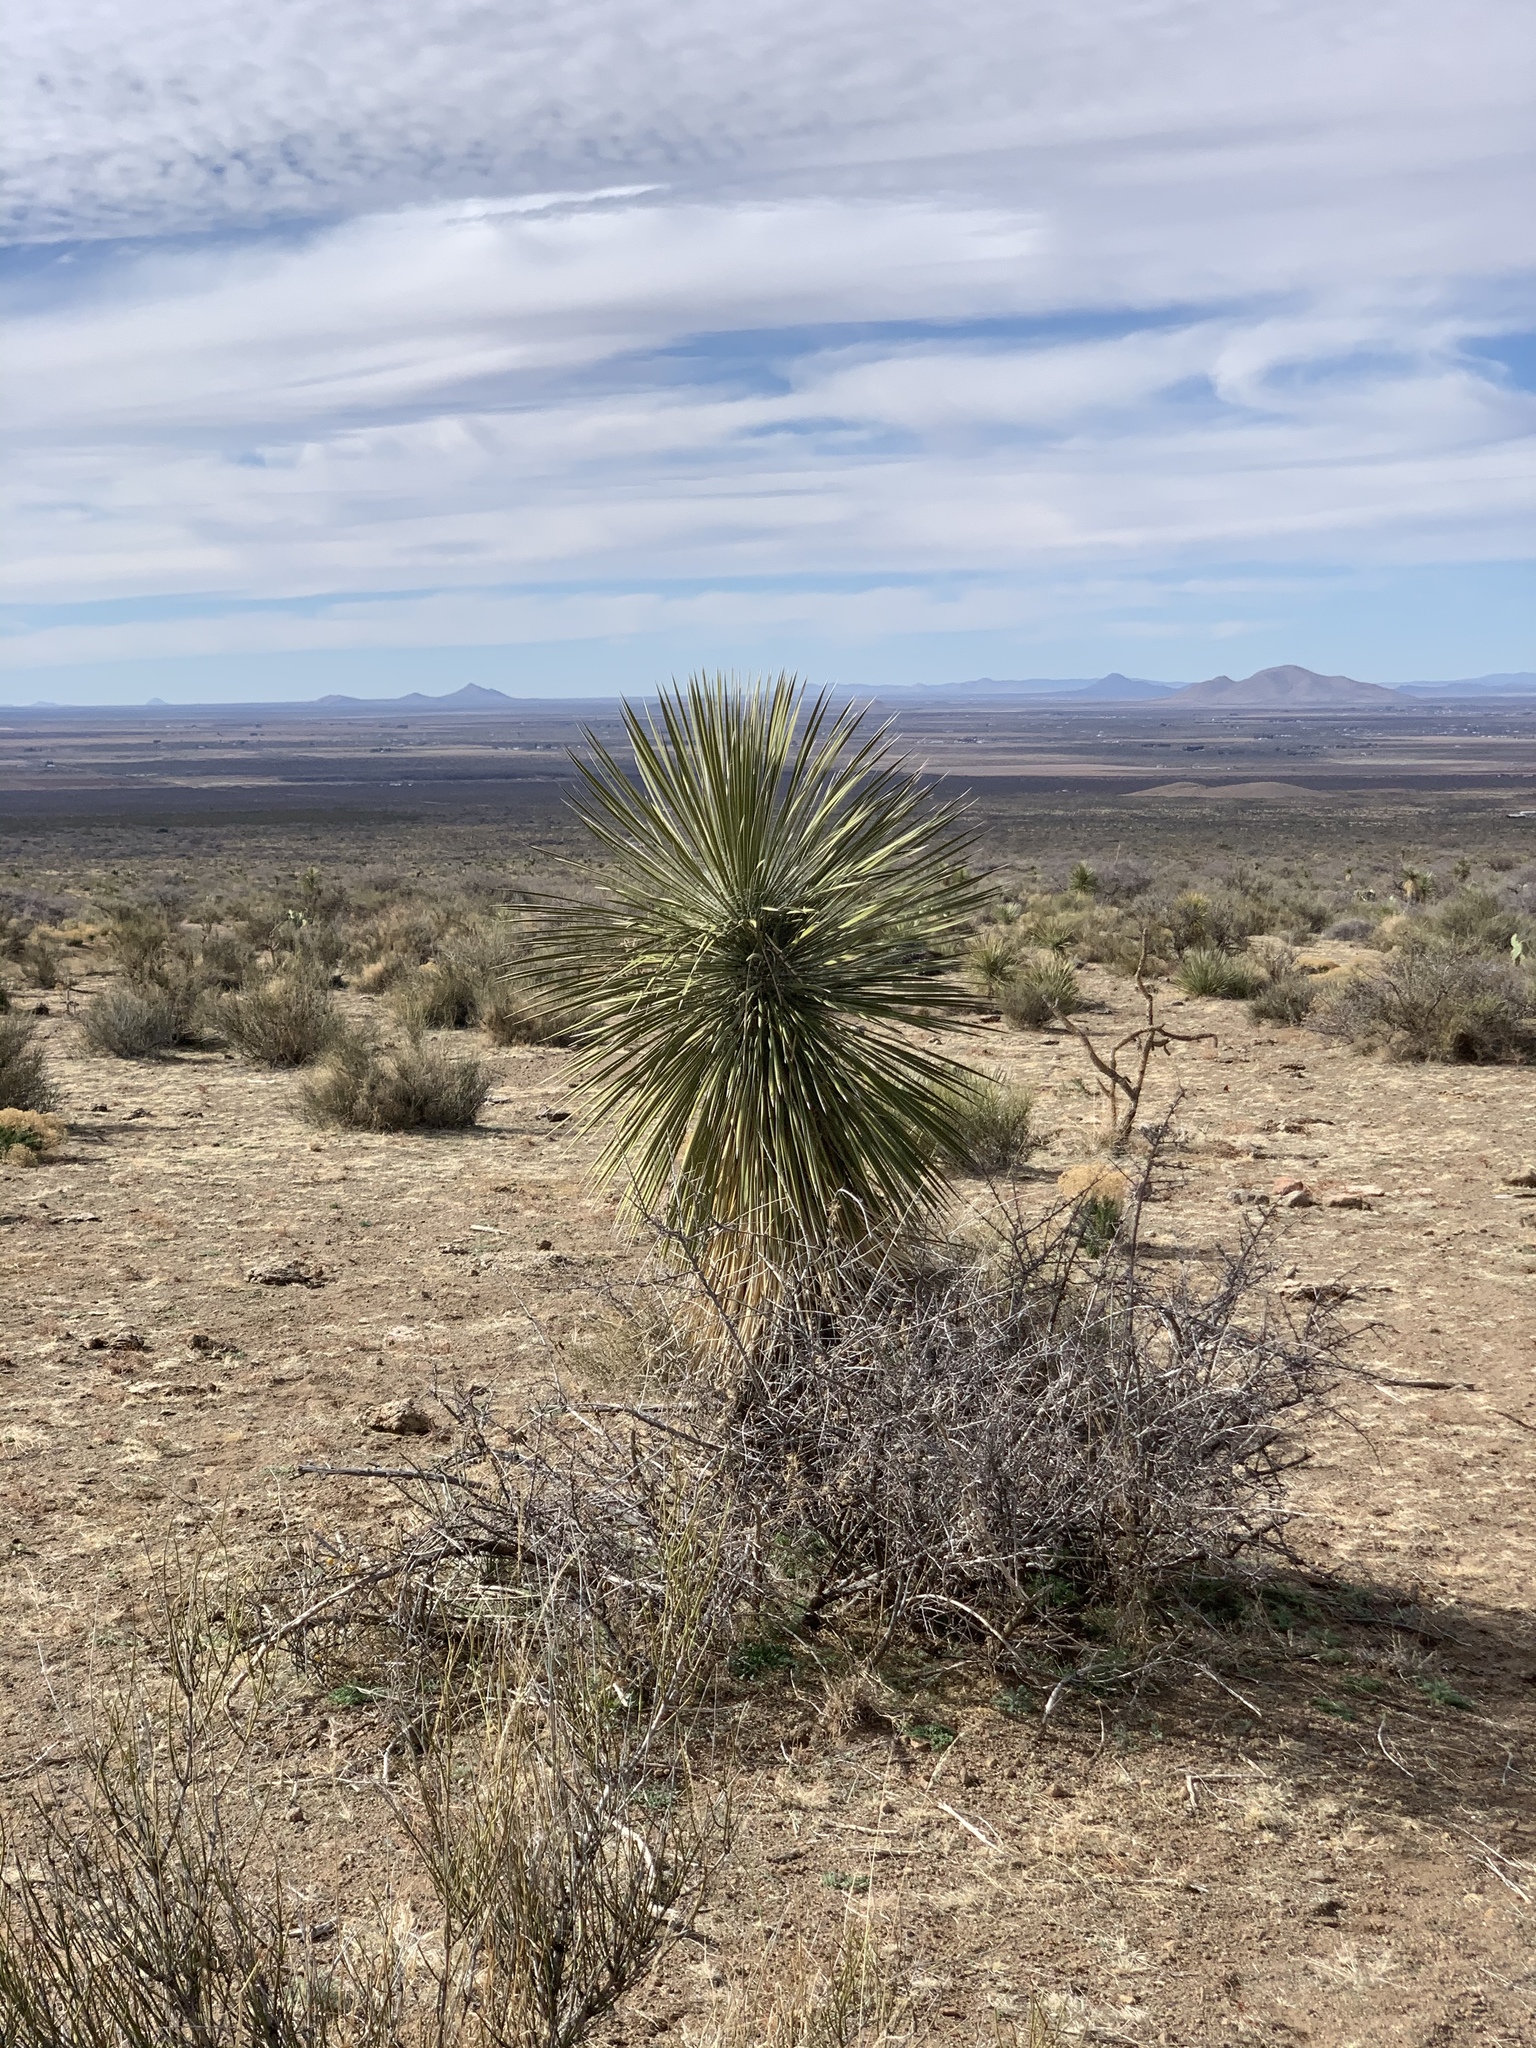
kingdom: Plantae
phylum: Tracheophyta
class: Liliopsida
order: Asparagales
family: Asparagaceae
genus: Yucca
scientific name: Yucca elata
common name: Palmella
